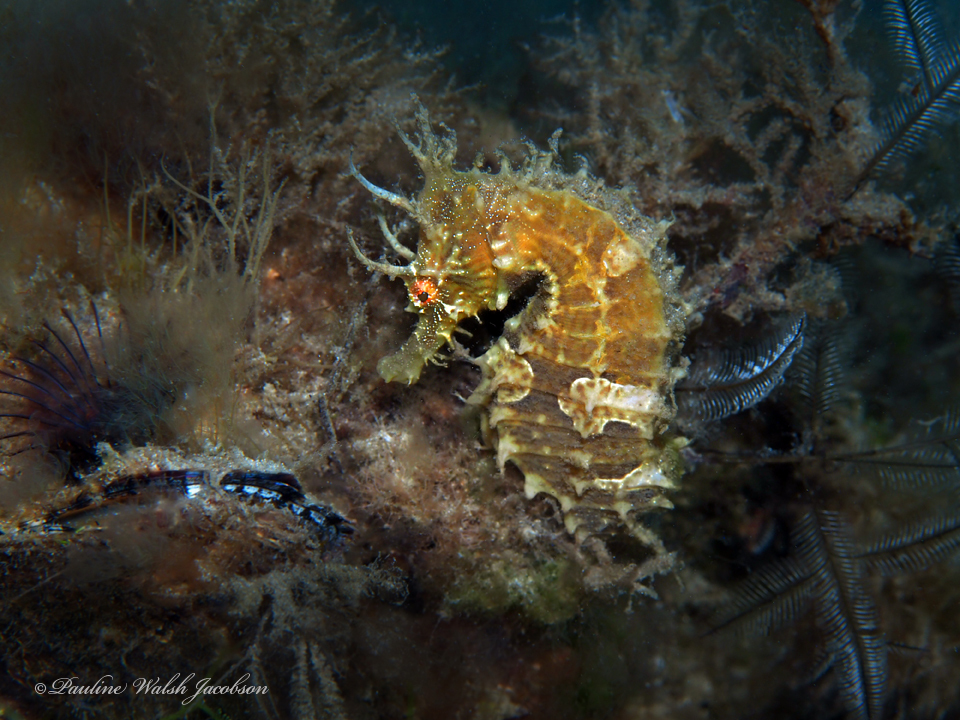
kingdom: Animalia
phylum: Chordata
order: Syngnathiformes
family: Syngnathidae
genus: Hippocampus
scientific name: Hippocampus erectus
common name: Lined seahorse
